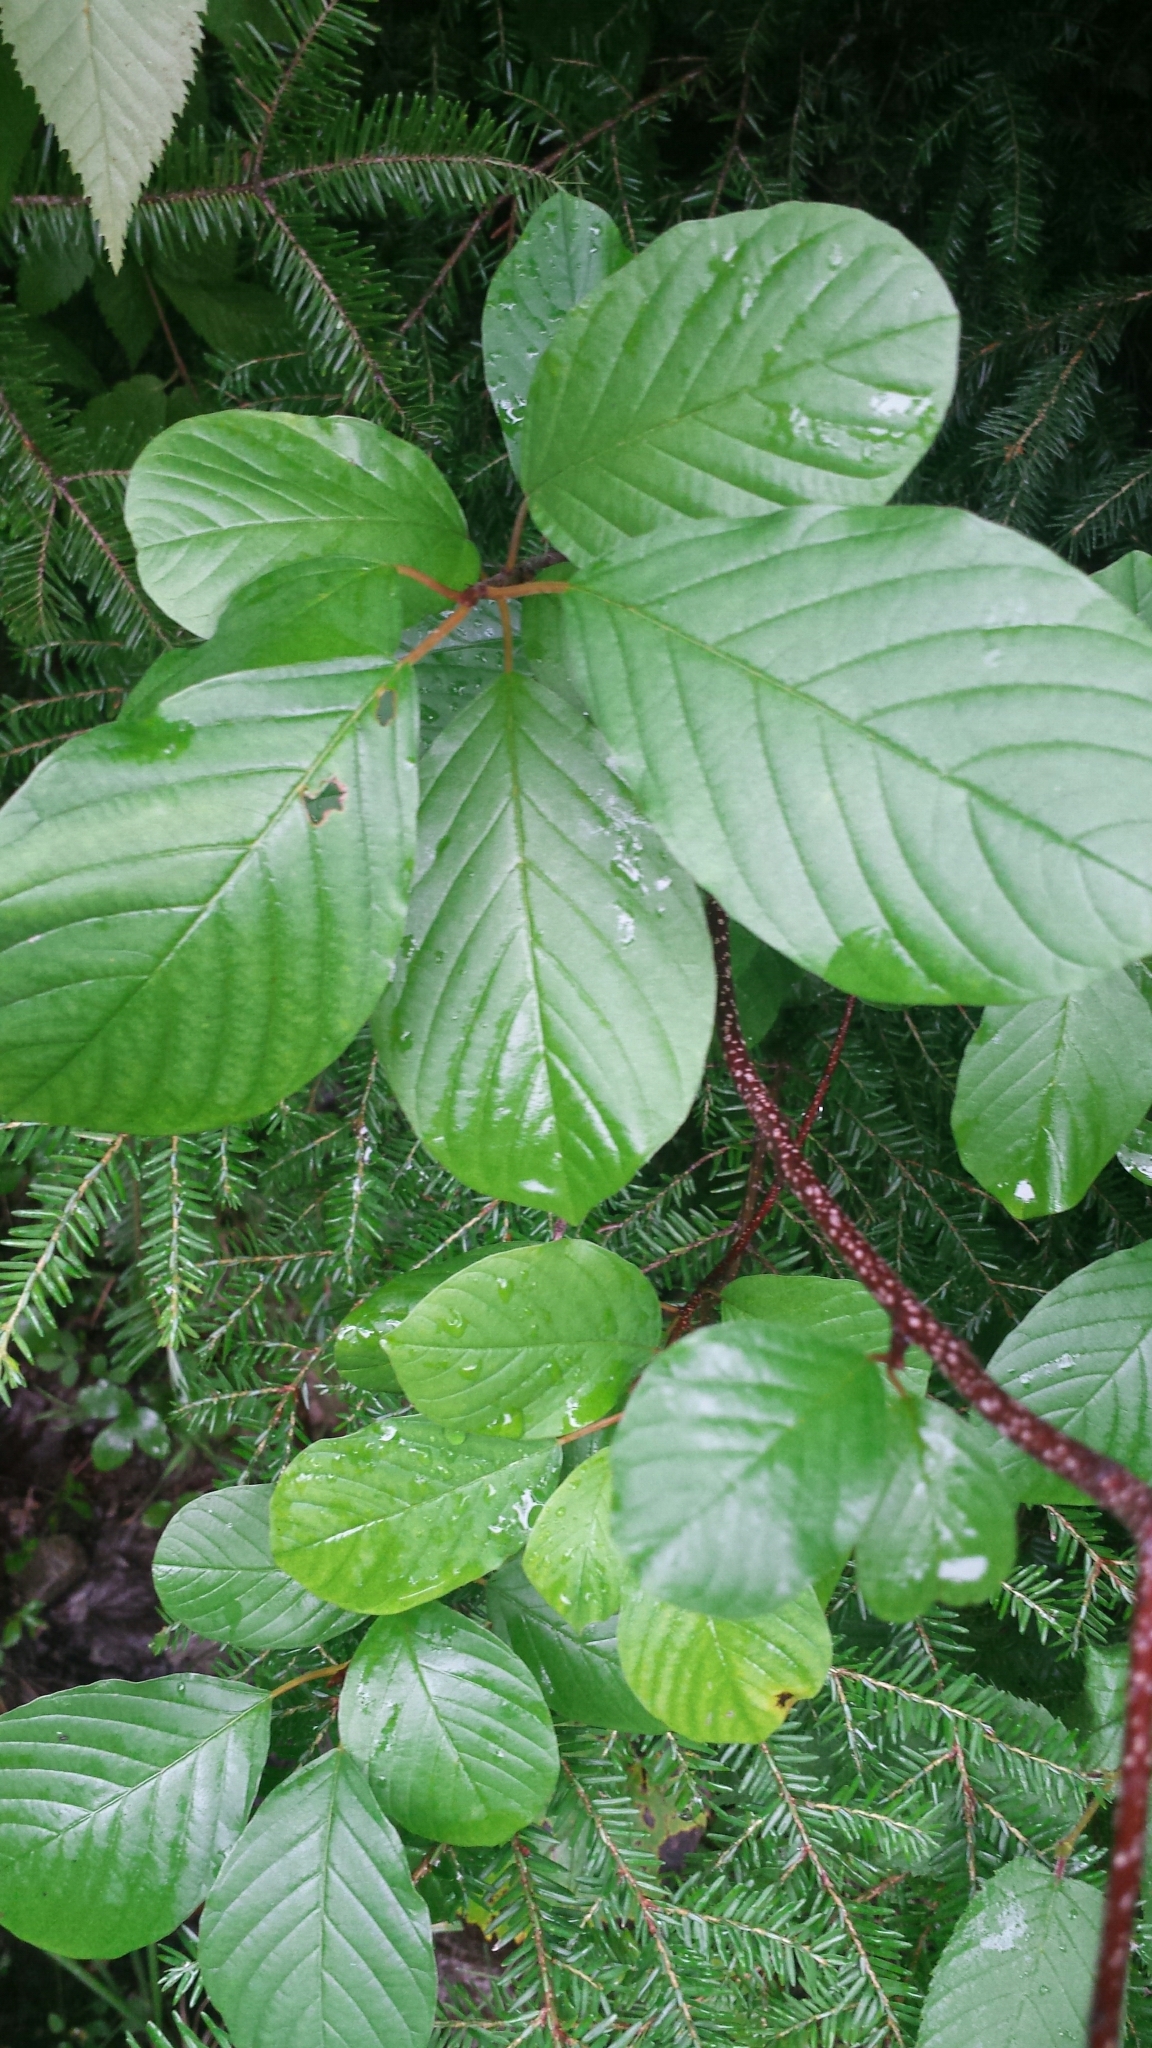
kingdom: Plantae
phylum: Tracheophyta
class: Magnoliopsida
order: Rosales
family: Rhamnaceae
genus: Frangula
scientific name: Frangula alnus
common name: Alder buckthorn
